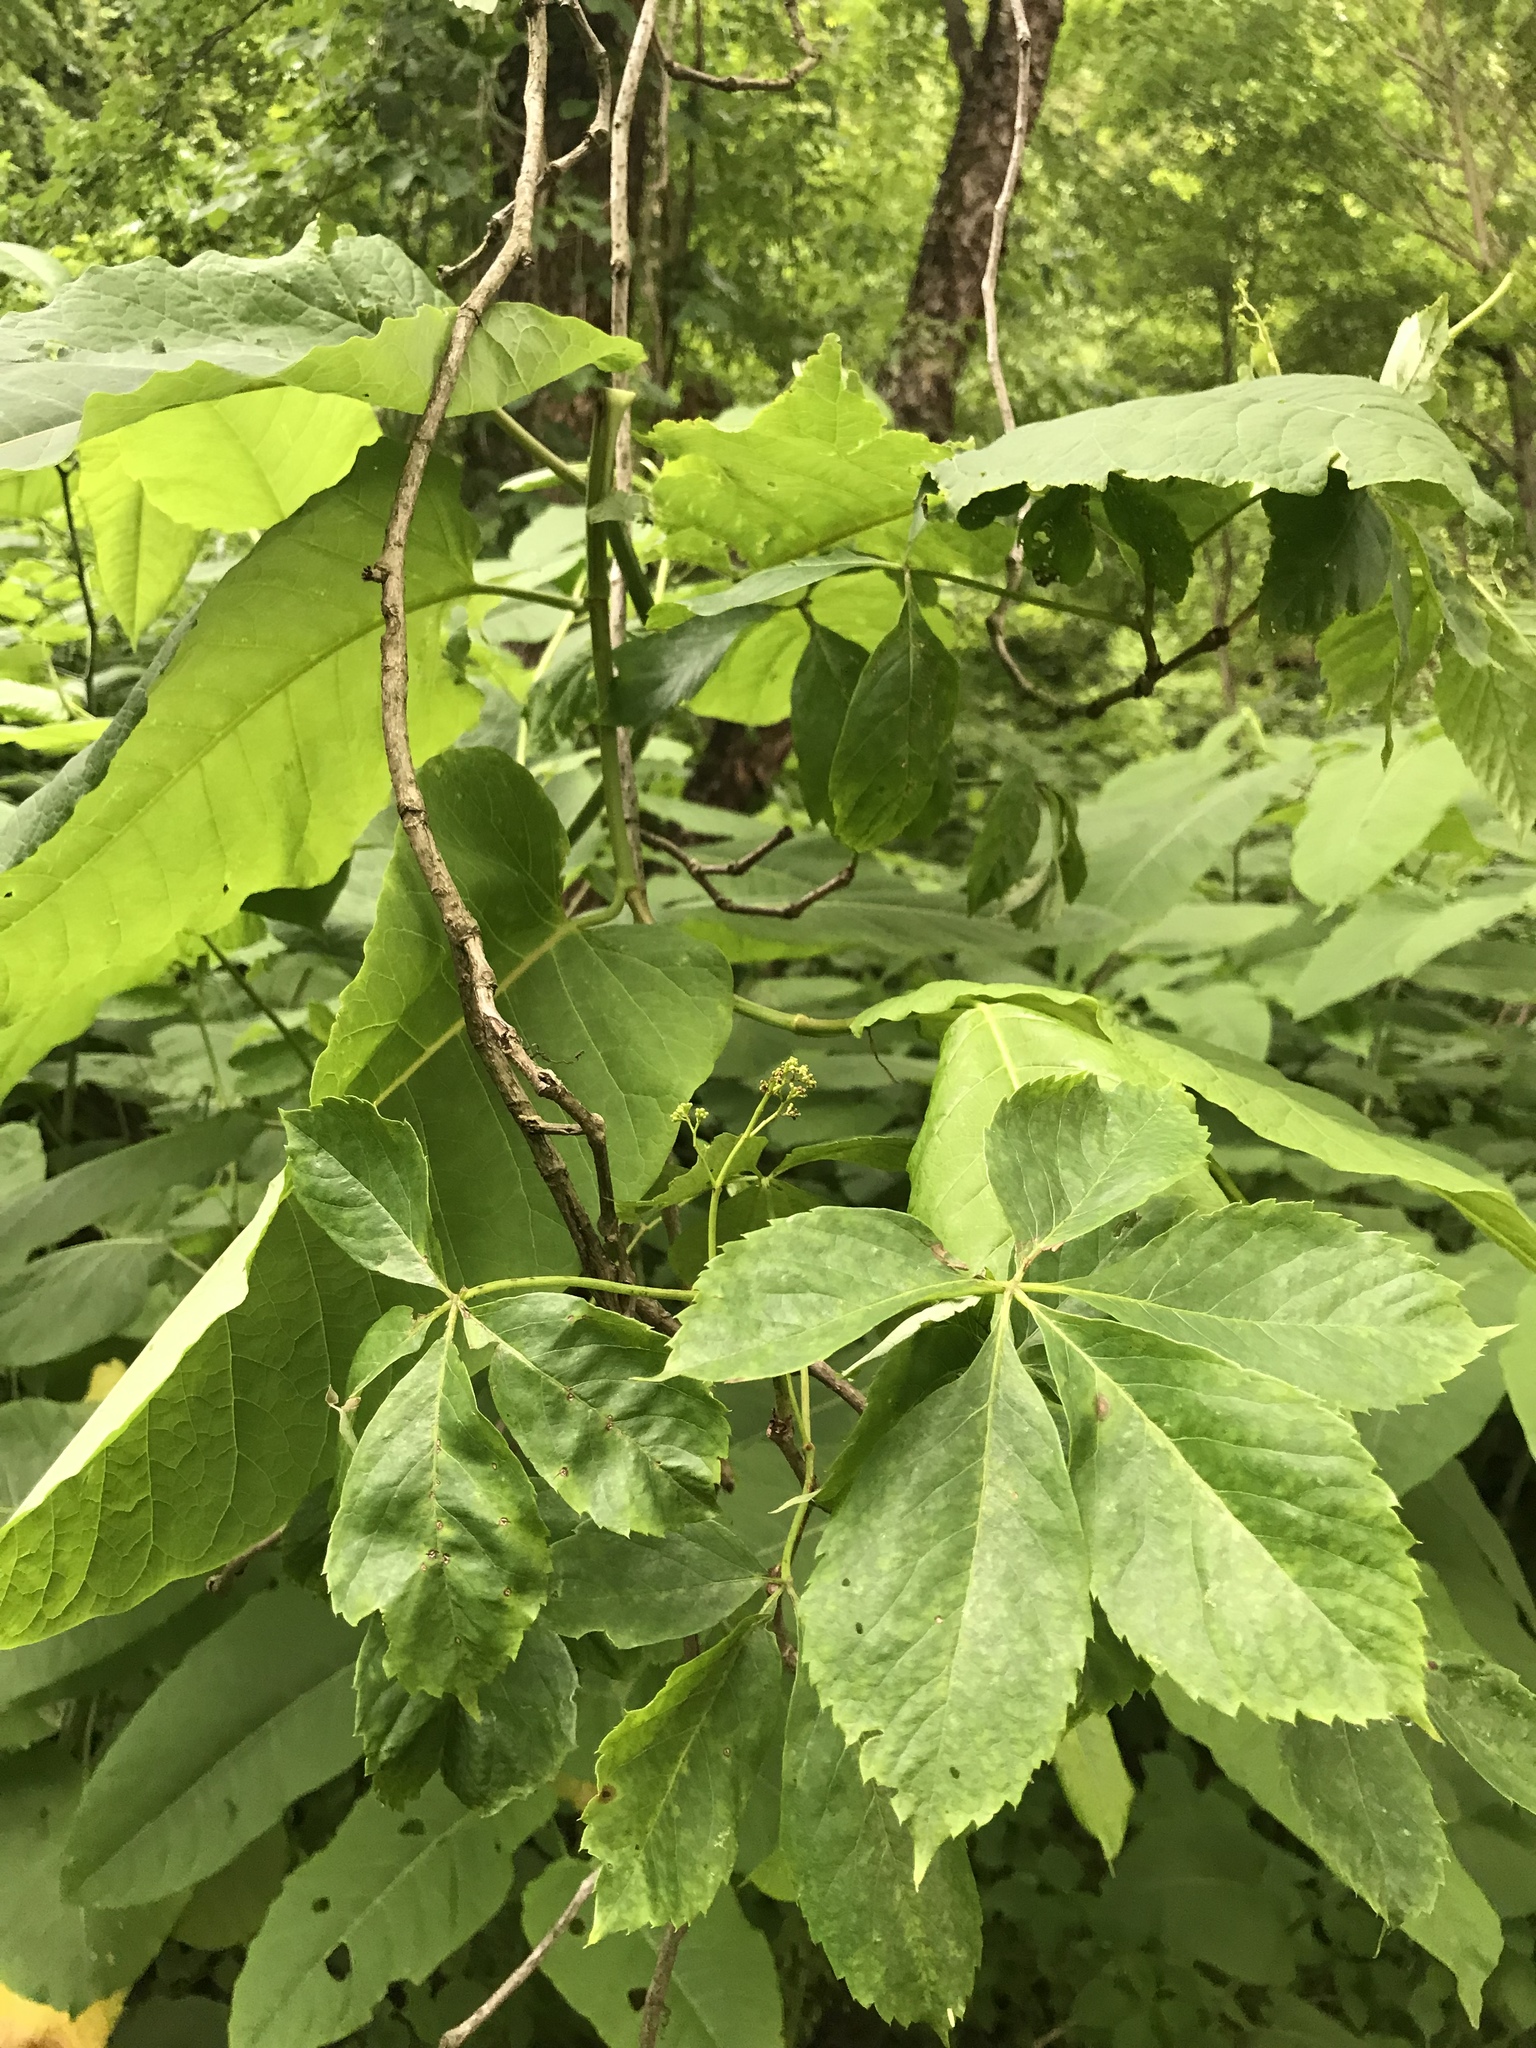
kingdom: Plantae
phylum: Tracheophyta
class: Magnoliopsida
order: Vitales
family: Vitaceae
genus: Parthenocissus
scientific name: Parthenocissus quinquefolia
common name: Virginia-creeper
